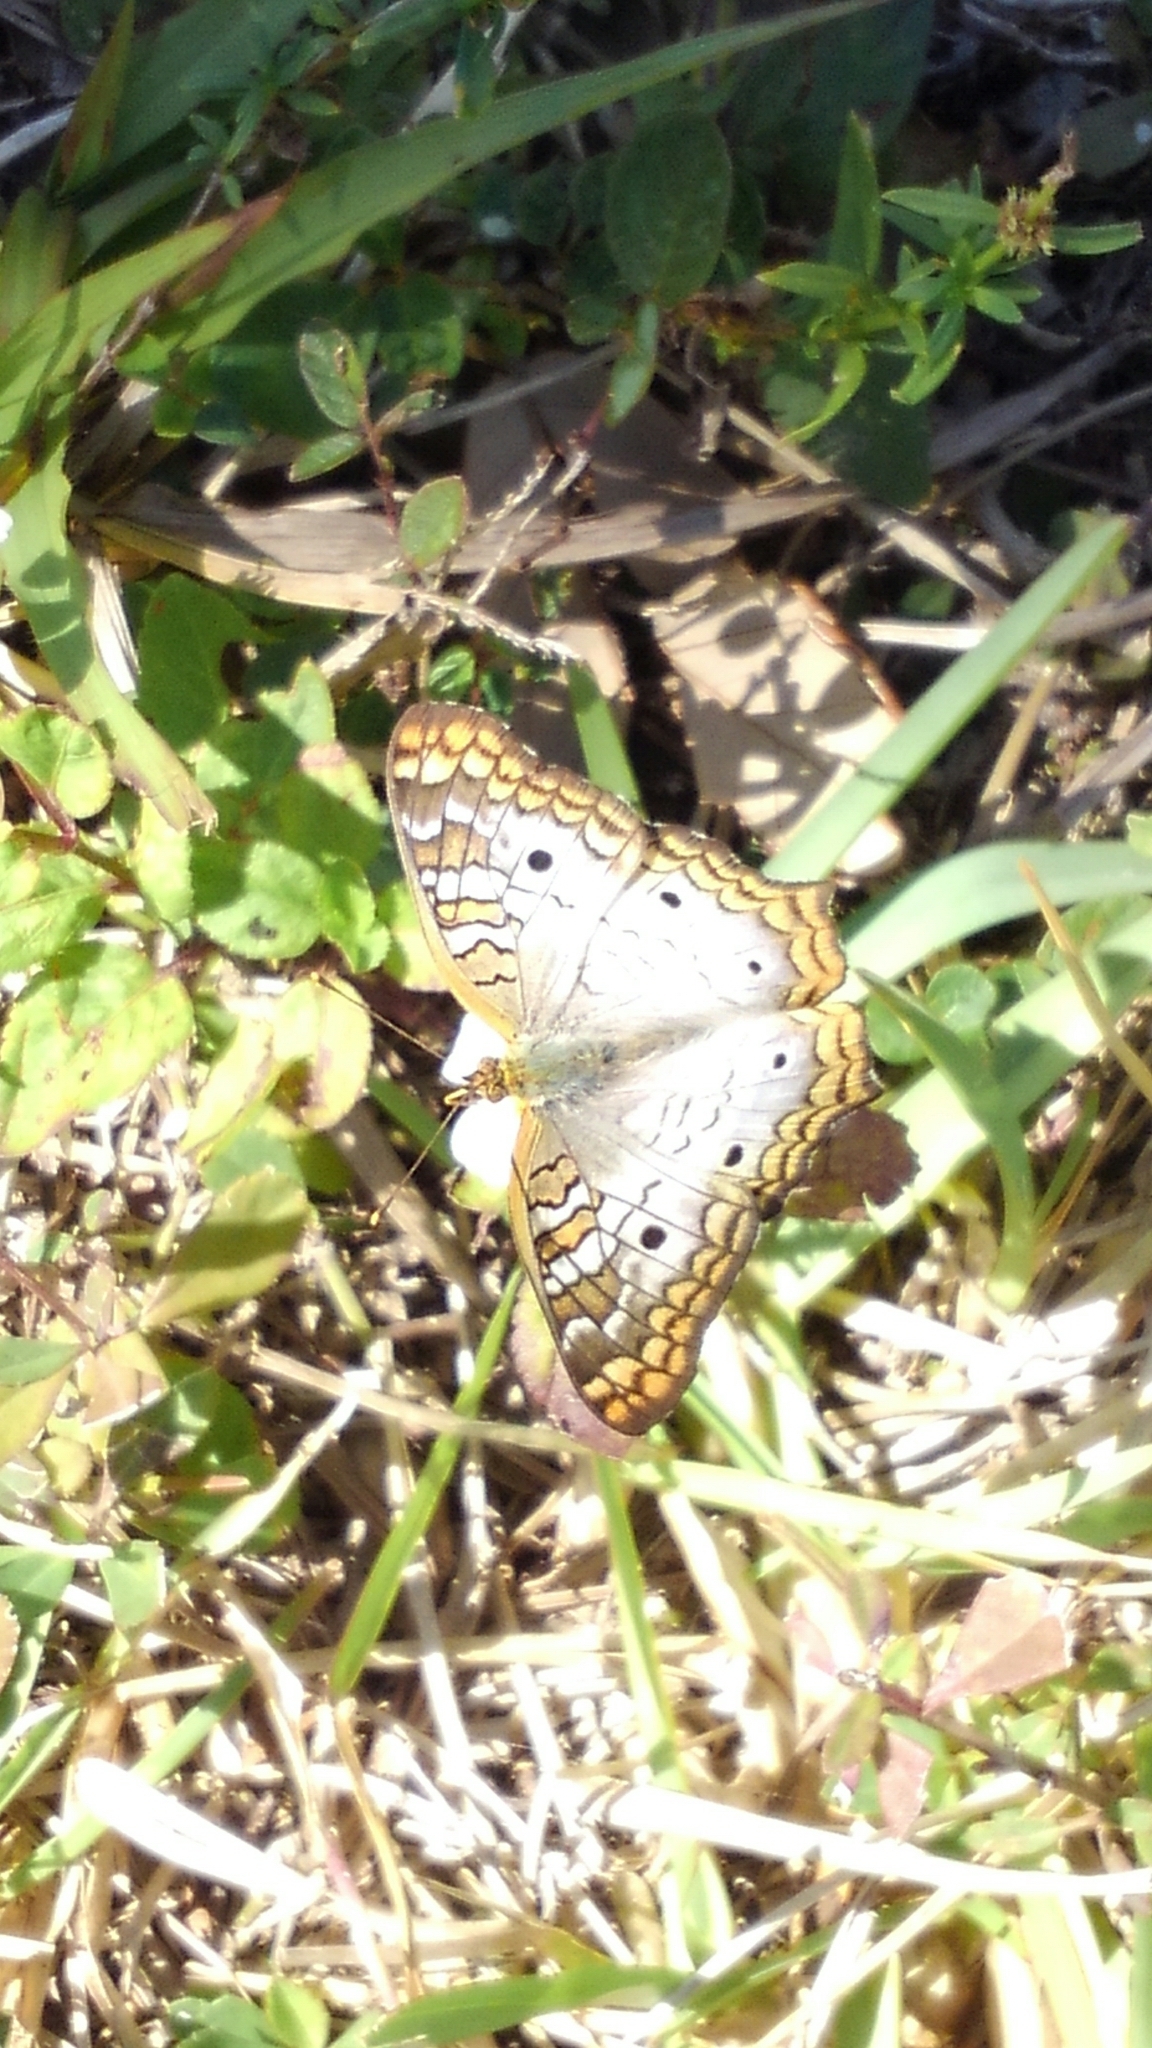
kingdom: Animalia
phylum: Arthropoda
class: Insecta
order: Lepidoptera
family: Nymphalidae
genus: Anartia
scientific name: Anartia jatrophae
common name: White peacock
